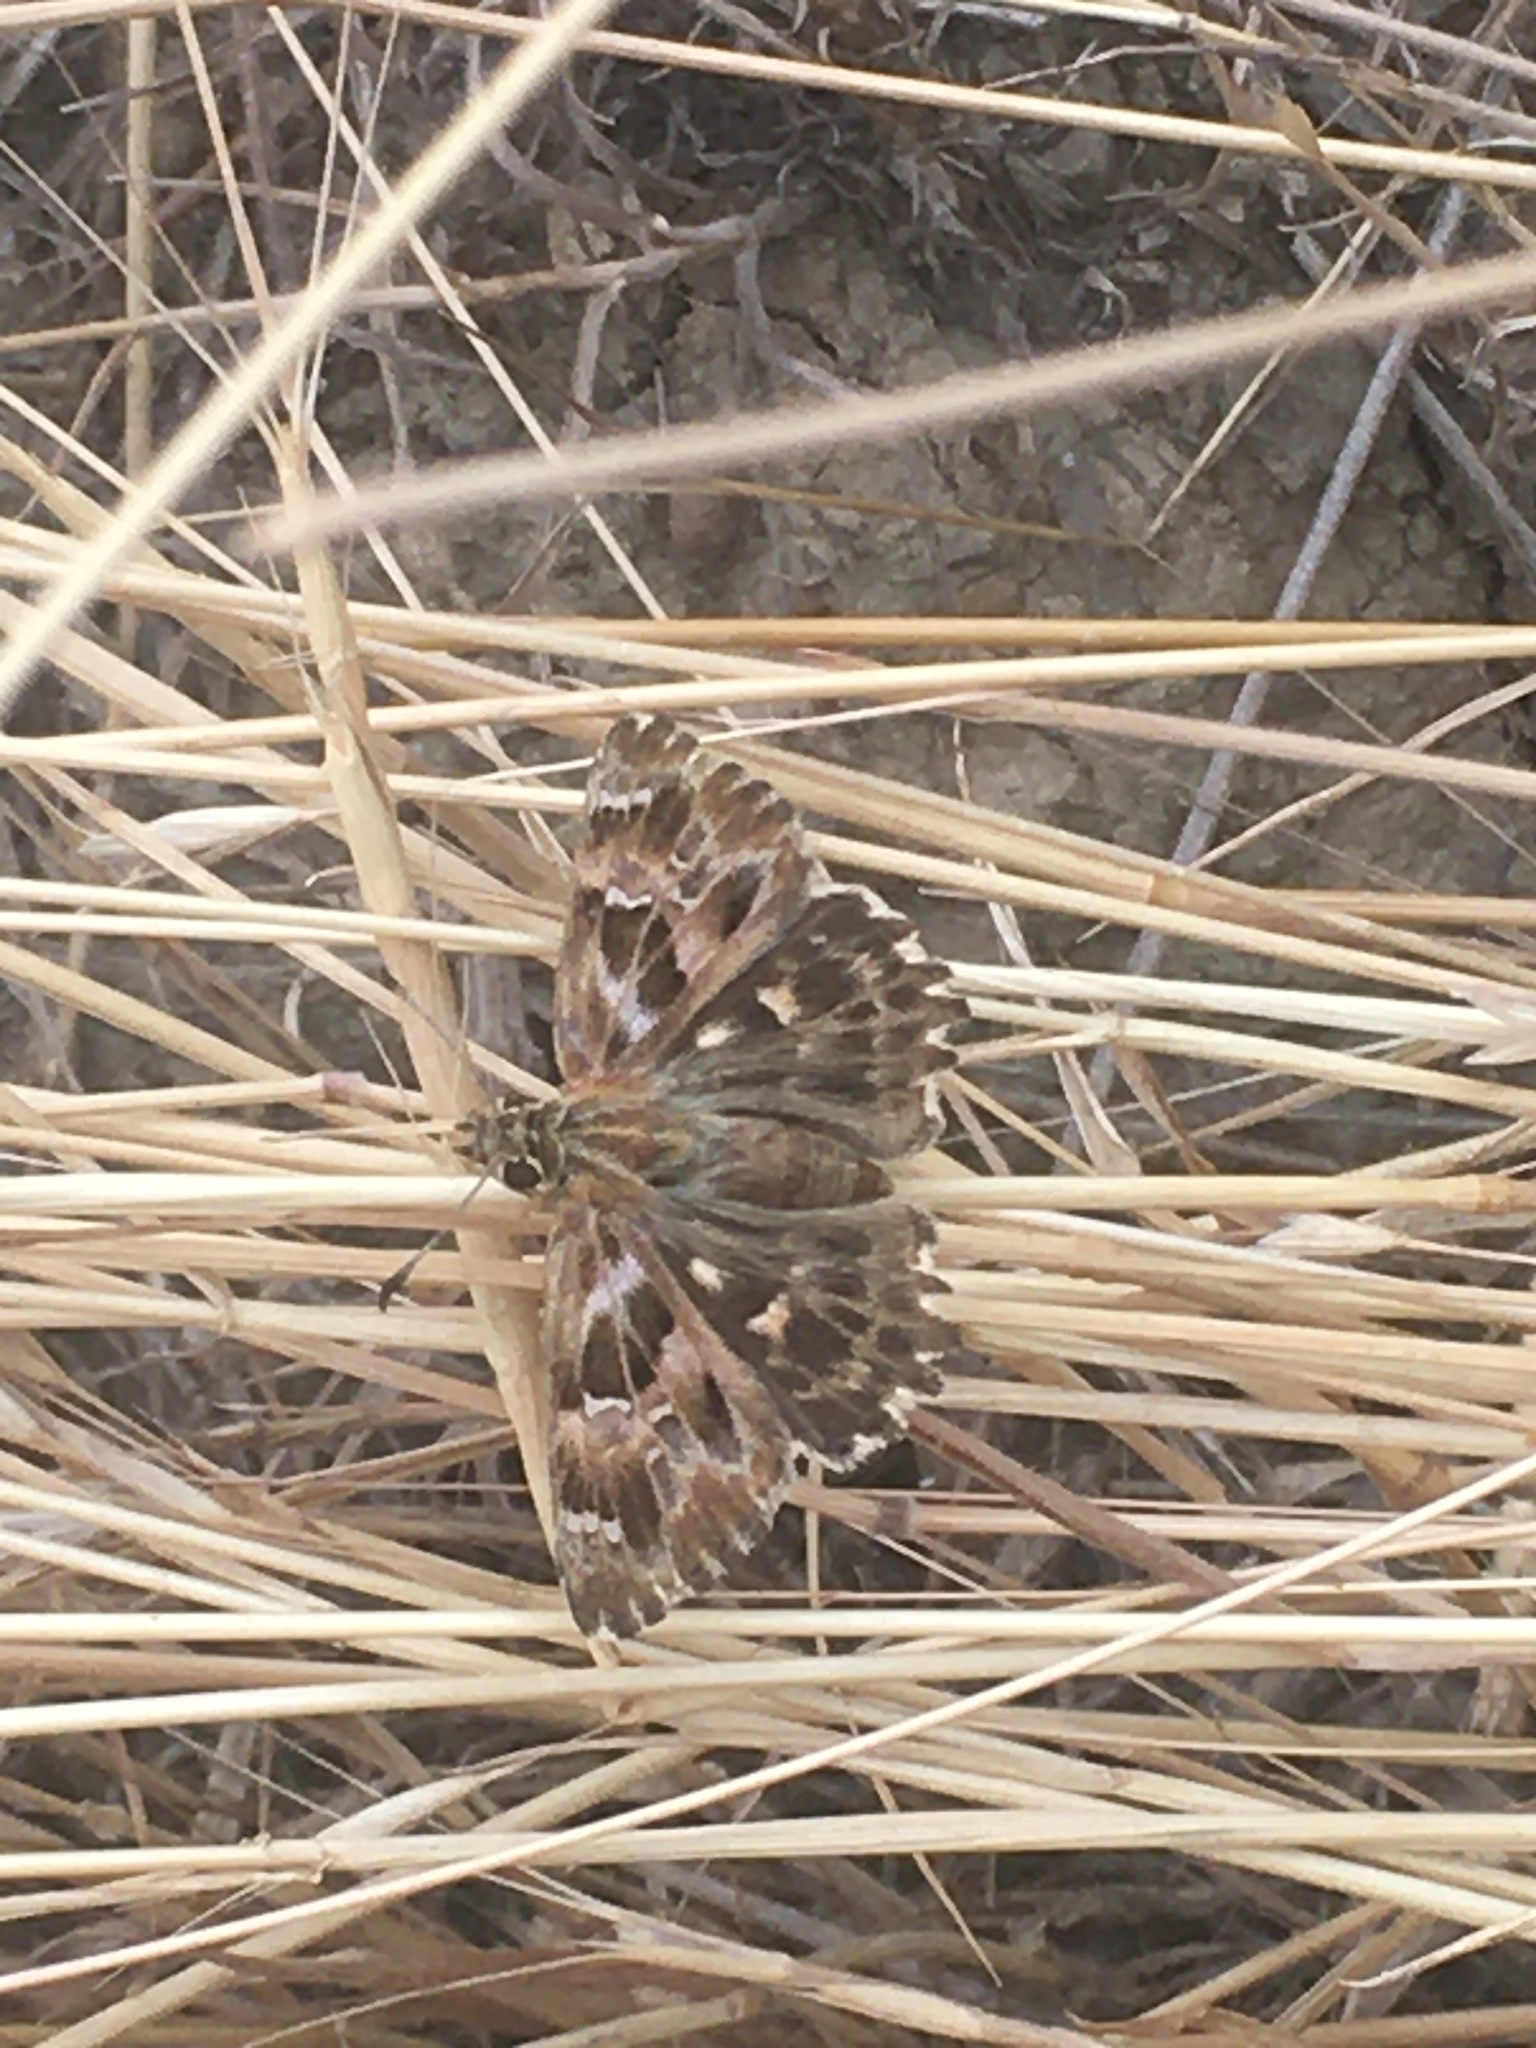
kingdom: Animalia
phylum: Arthropoda
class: Insecta
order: Lepidoptera
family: Hesperiidae
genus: Carcharodus
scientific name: Carcharodus alceae
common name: Mallow skipper
